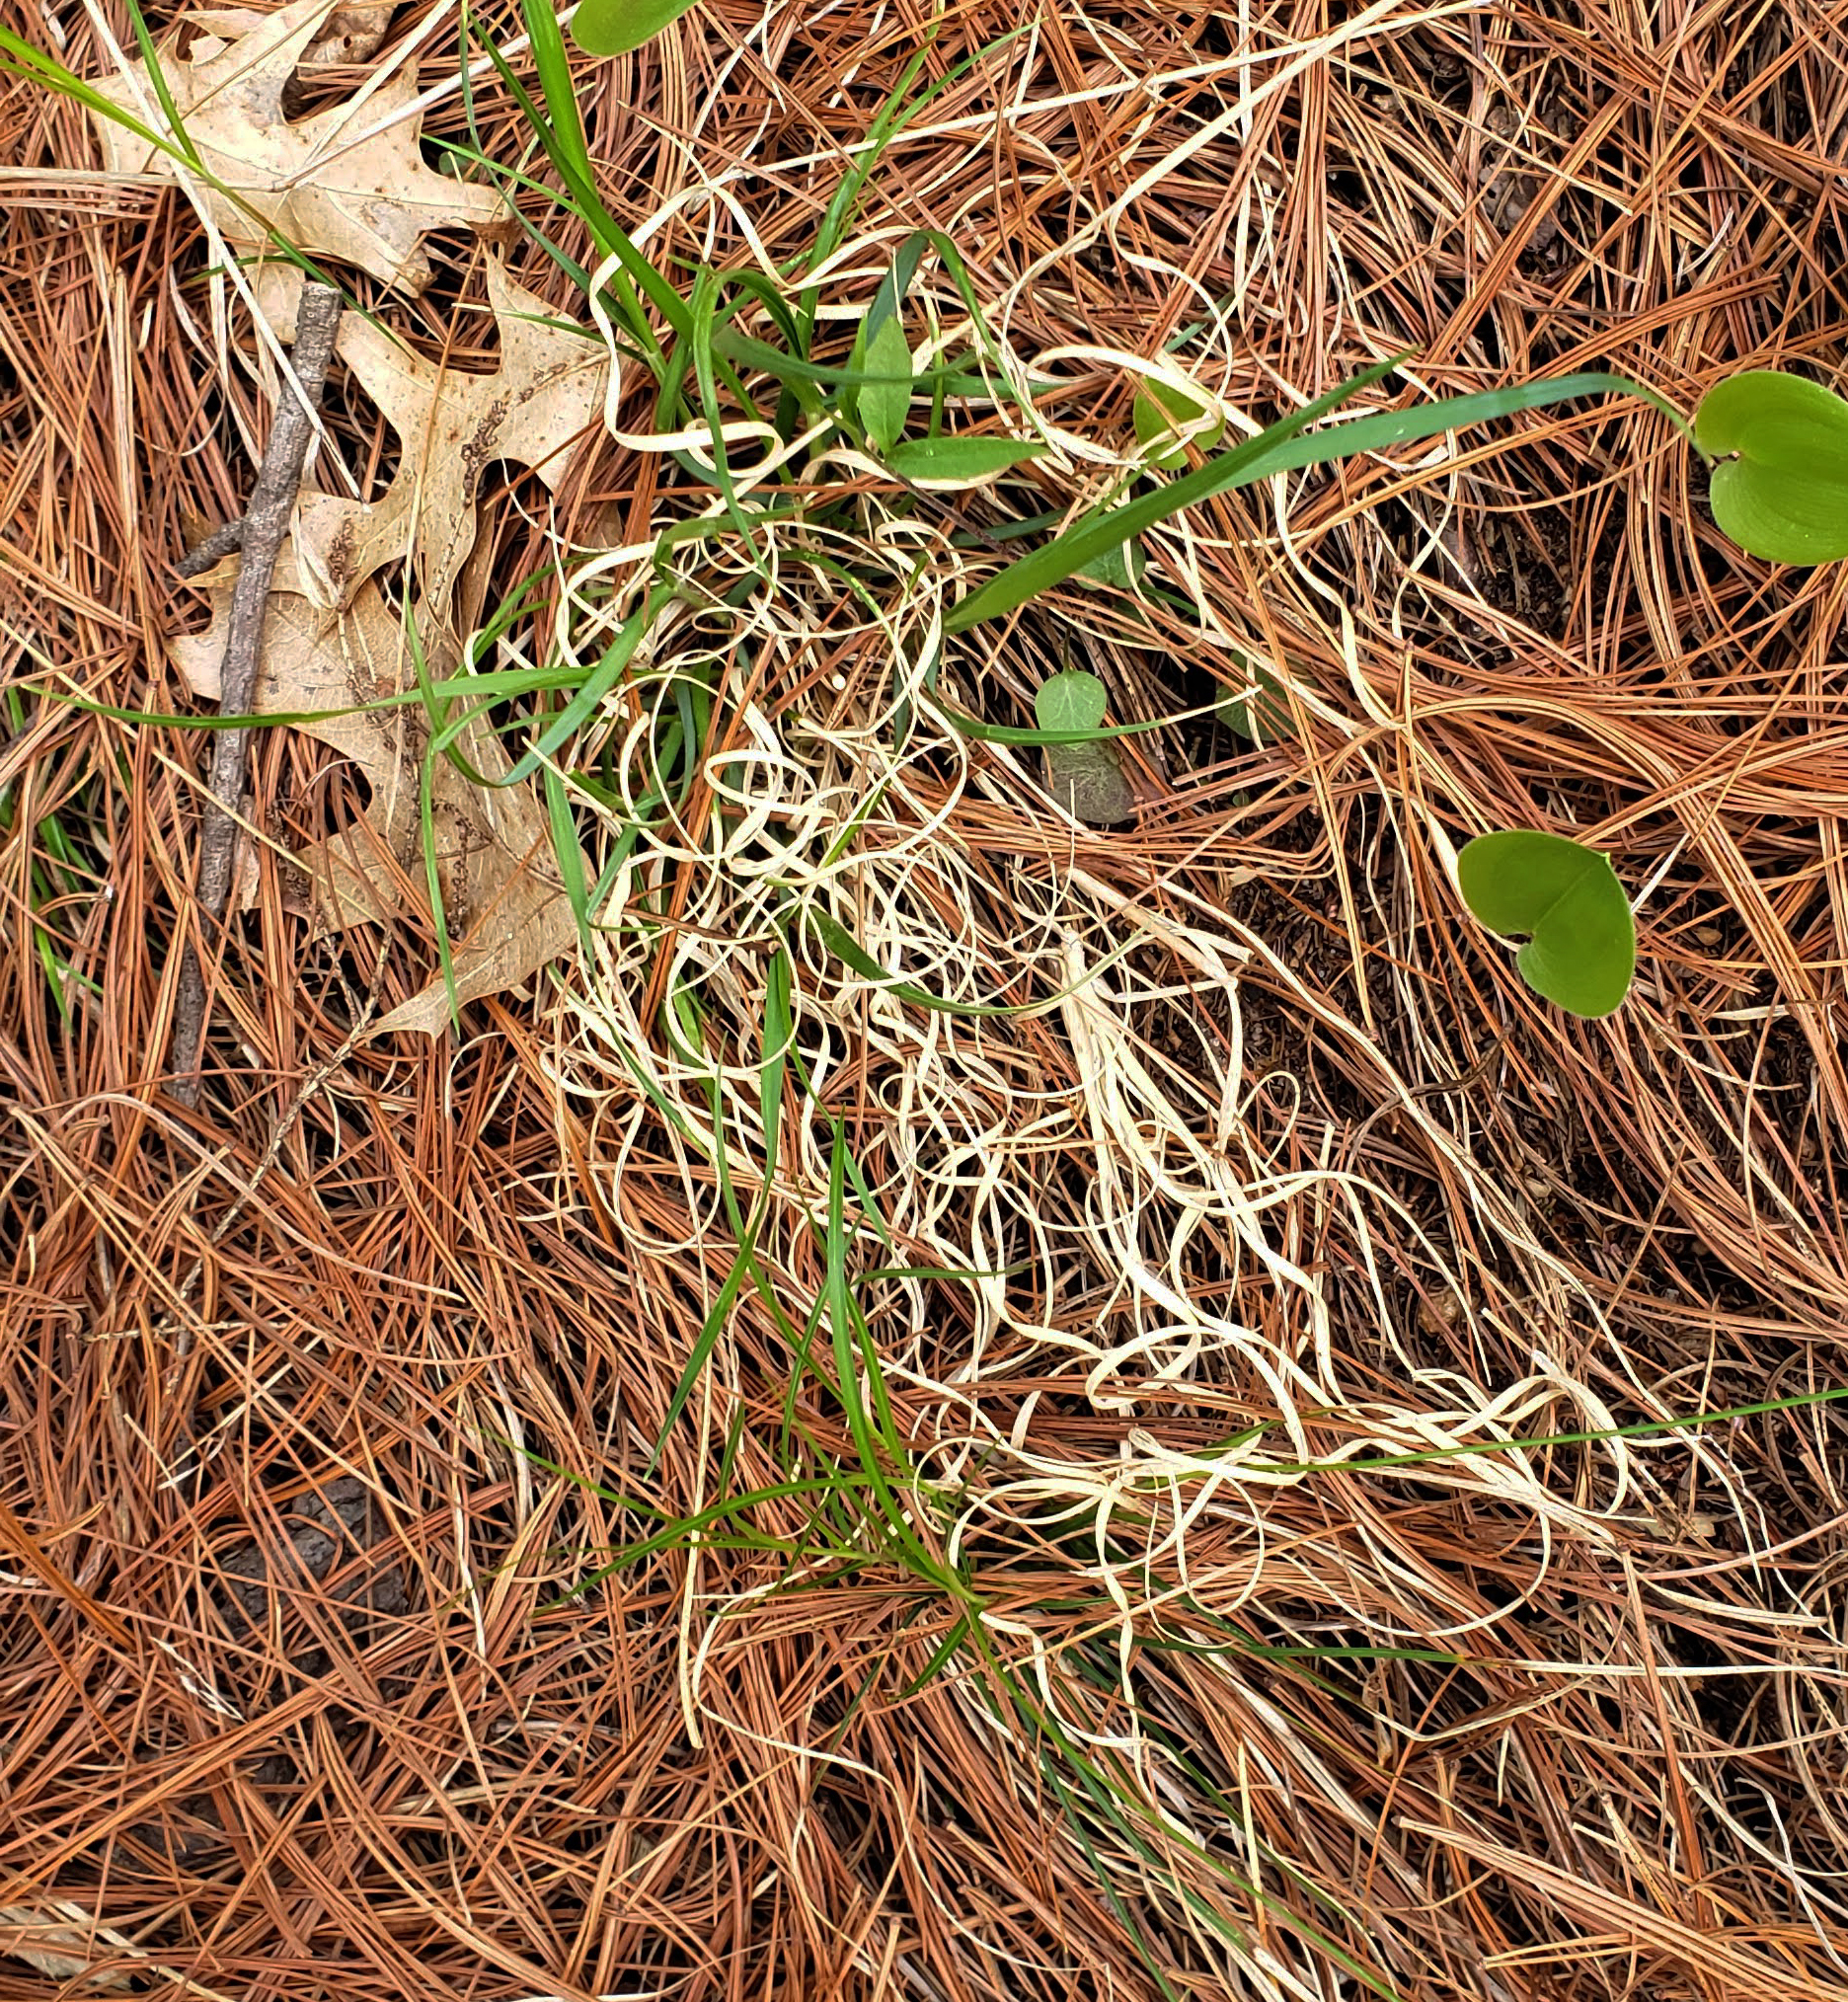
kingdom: Plantae
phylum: Tracheophyta
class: Liliopsida
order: Poales
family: Poaceae
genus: Danthonia
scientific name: Danthonia spicata
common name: Common wild oatgrass
